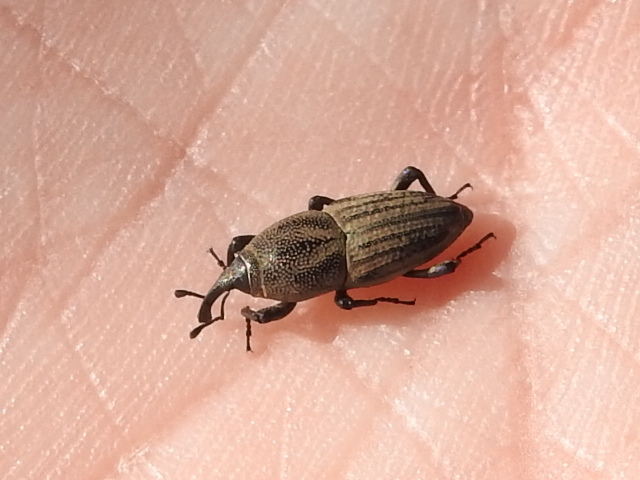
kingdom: Animalia
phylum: Arthropoda
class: Insecta
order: Coleoptera
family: Dryophthoridae
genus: Sphenophorus
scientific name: Sphenophorus interstitialis
